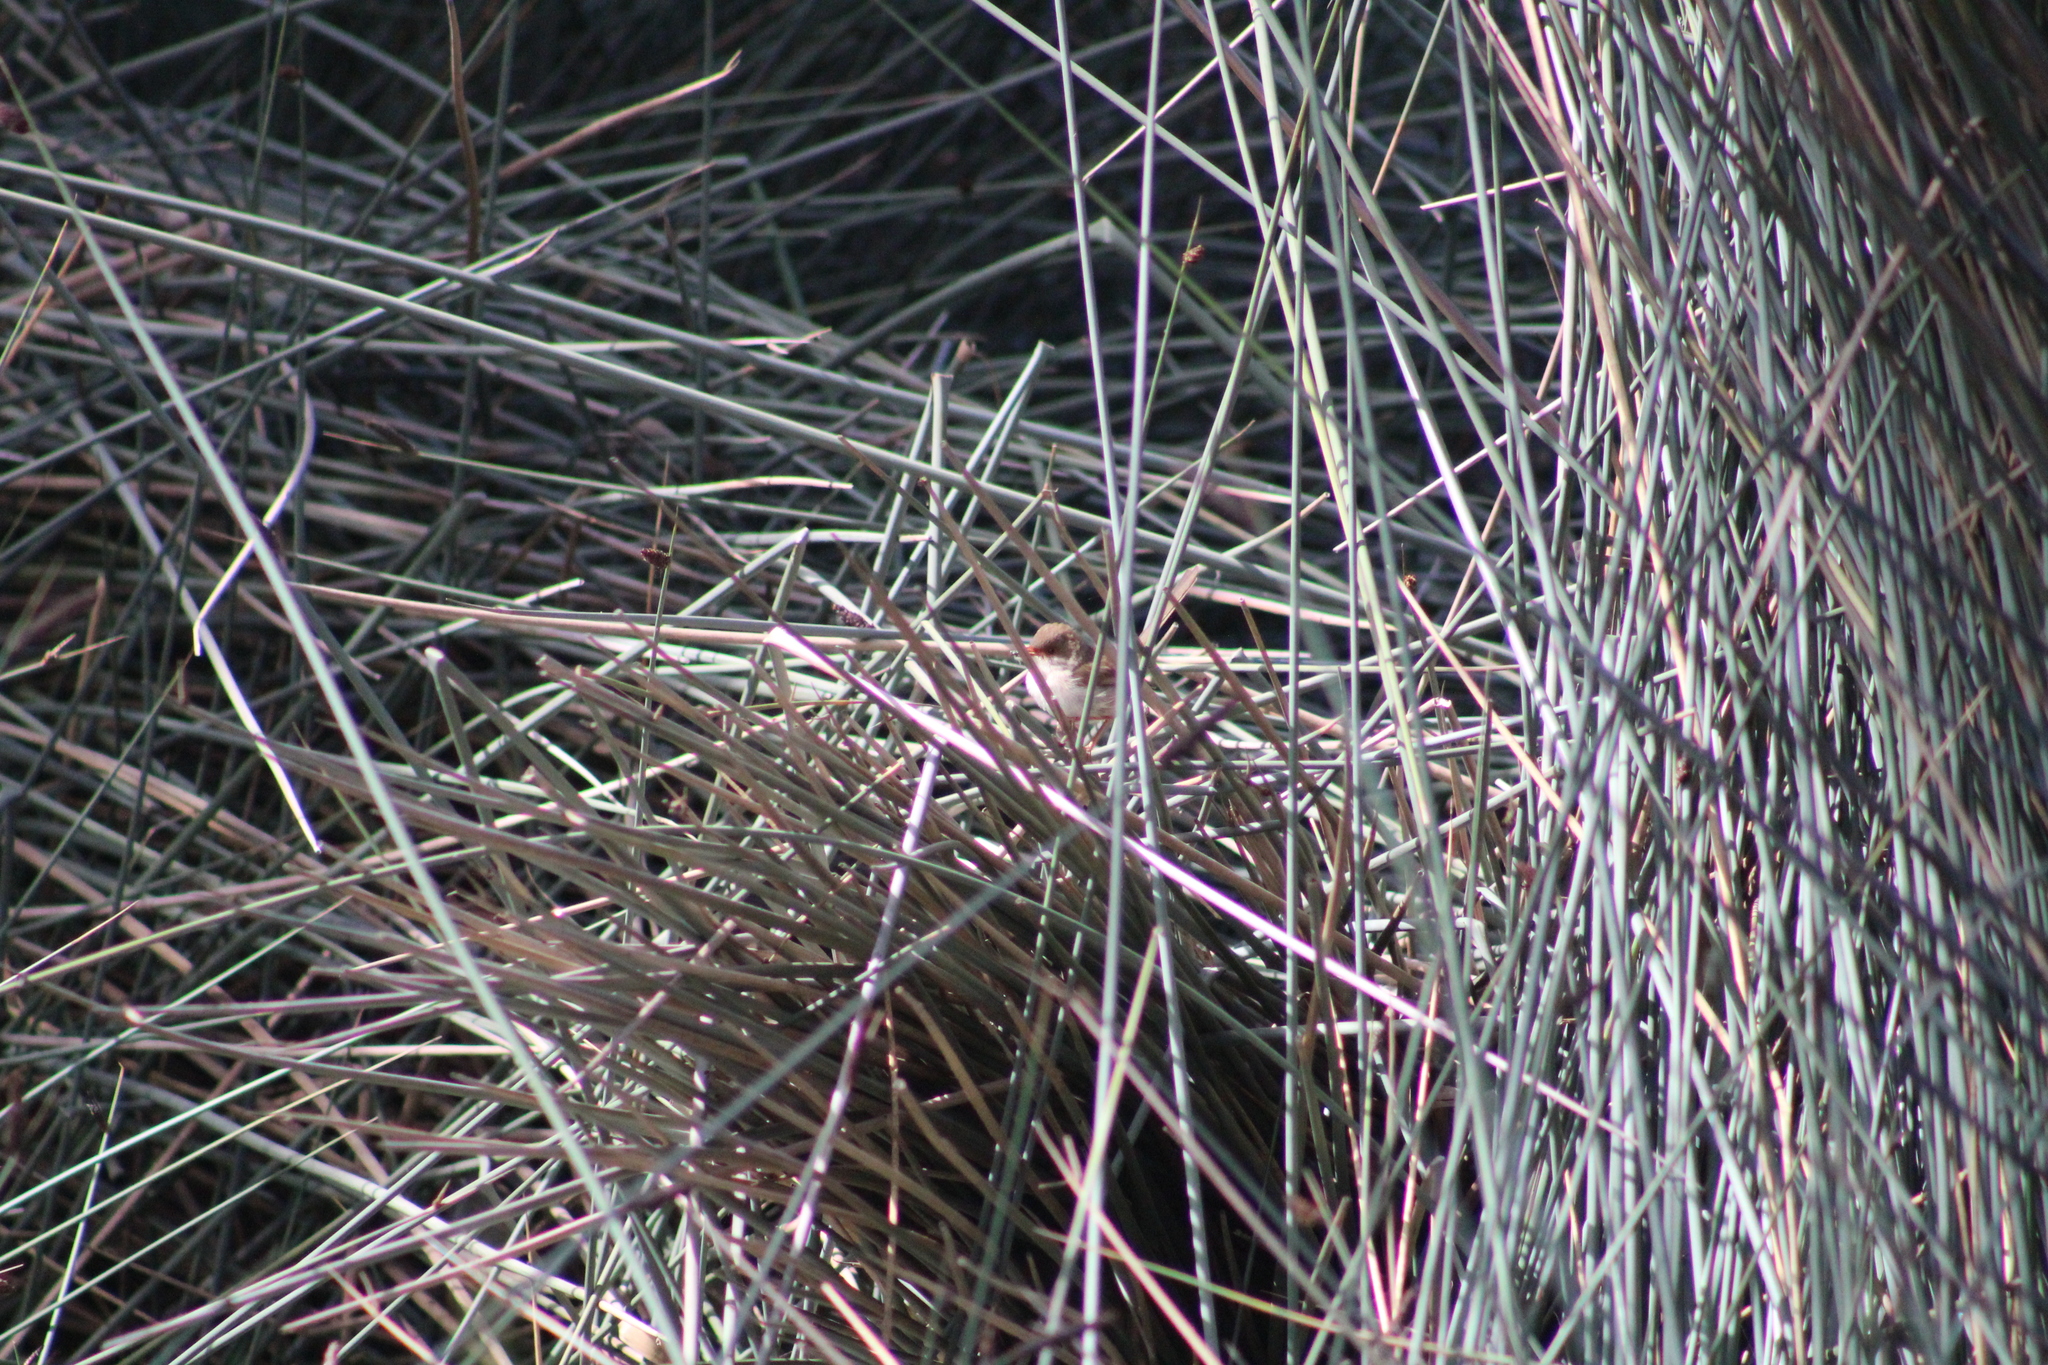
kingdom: Animalia
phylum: Chordata
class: Aves
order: Passeriformes
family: Maluridae
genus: Malurus
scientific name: Malurus cyaneus
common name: Superb fairywren
